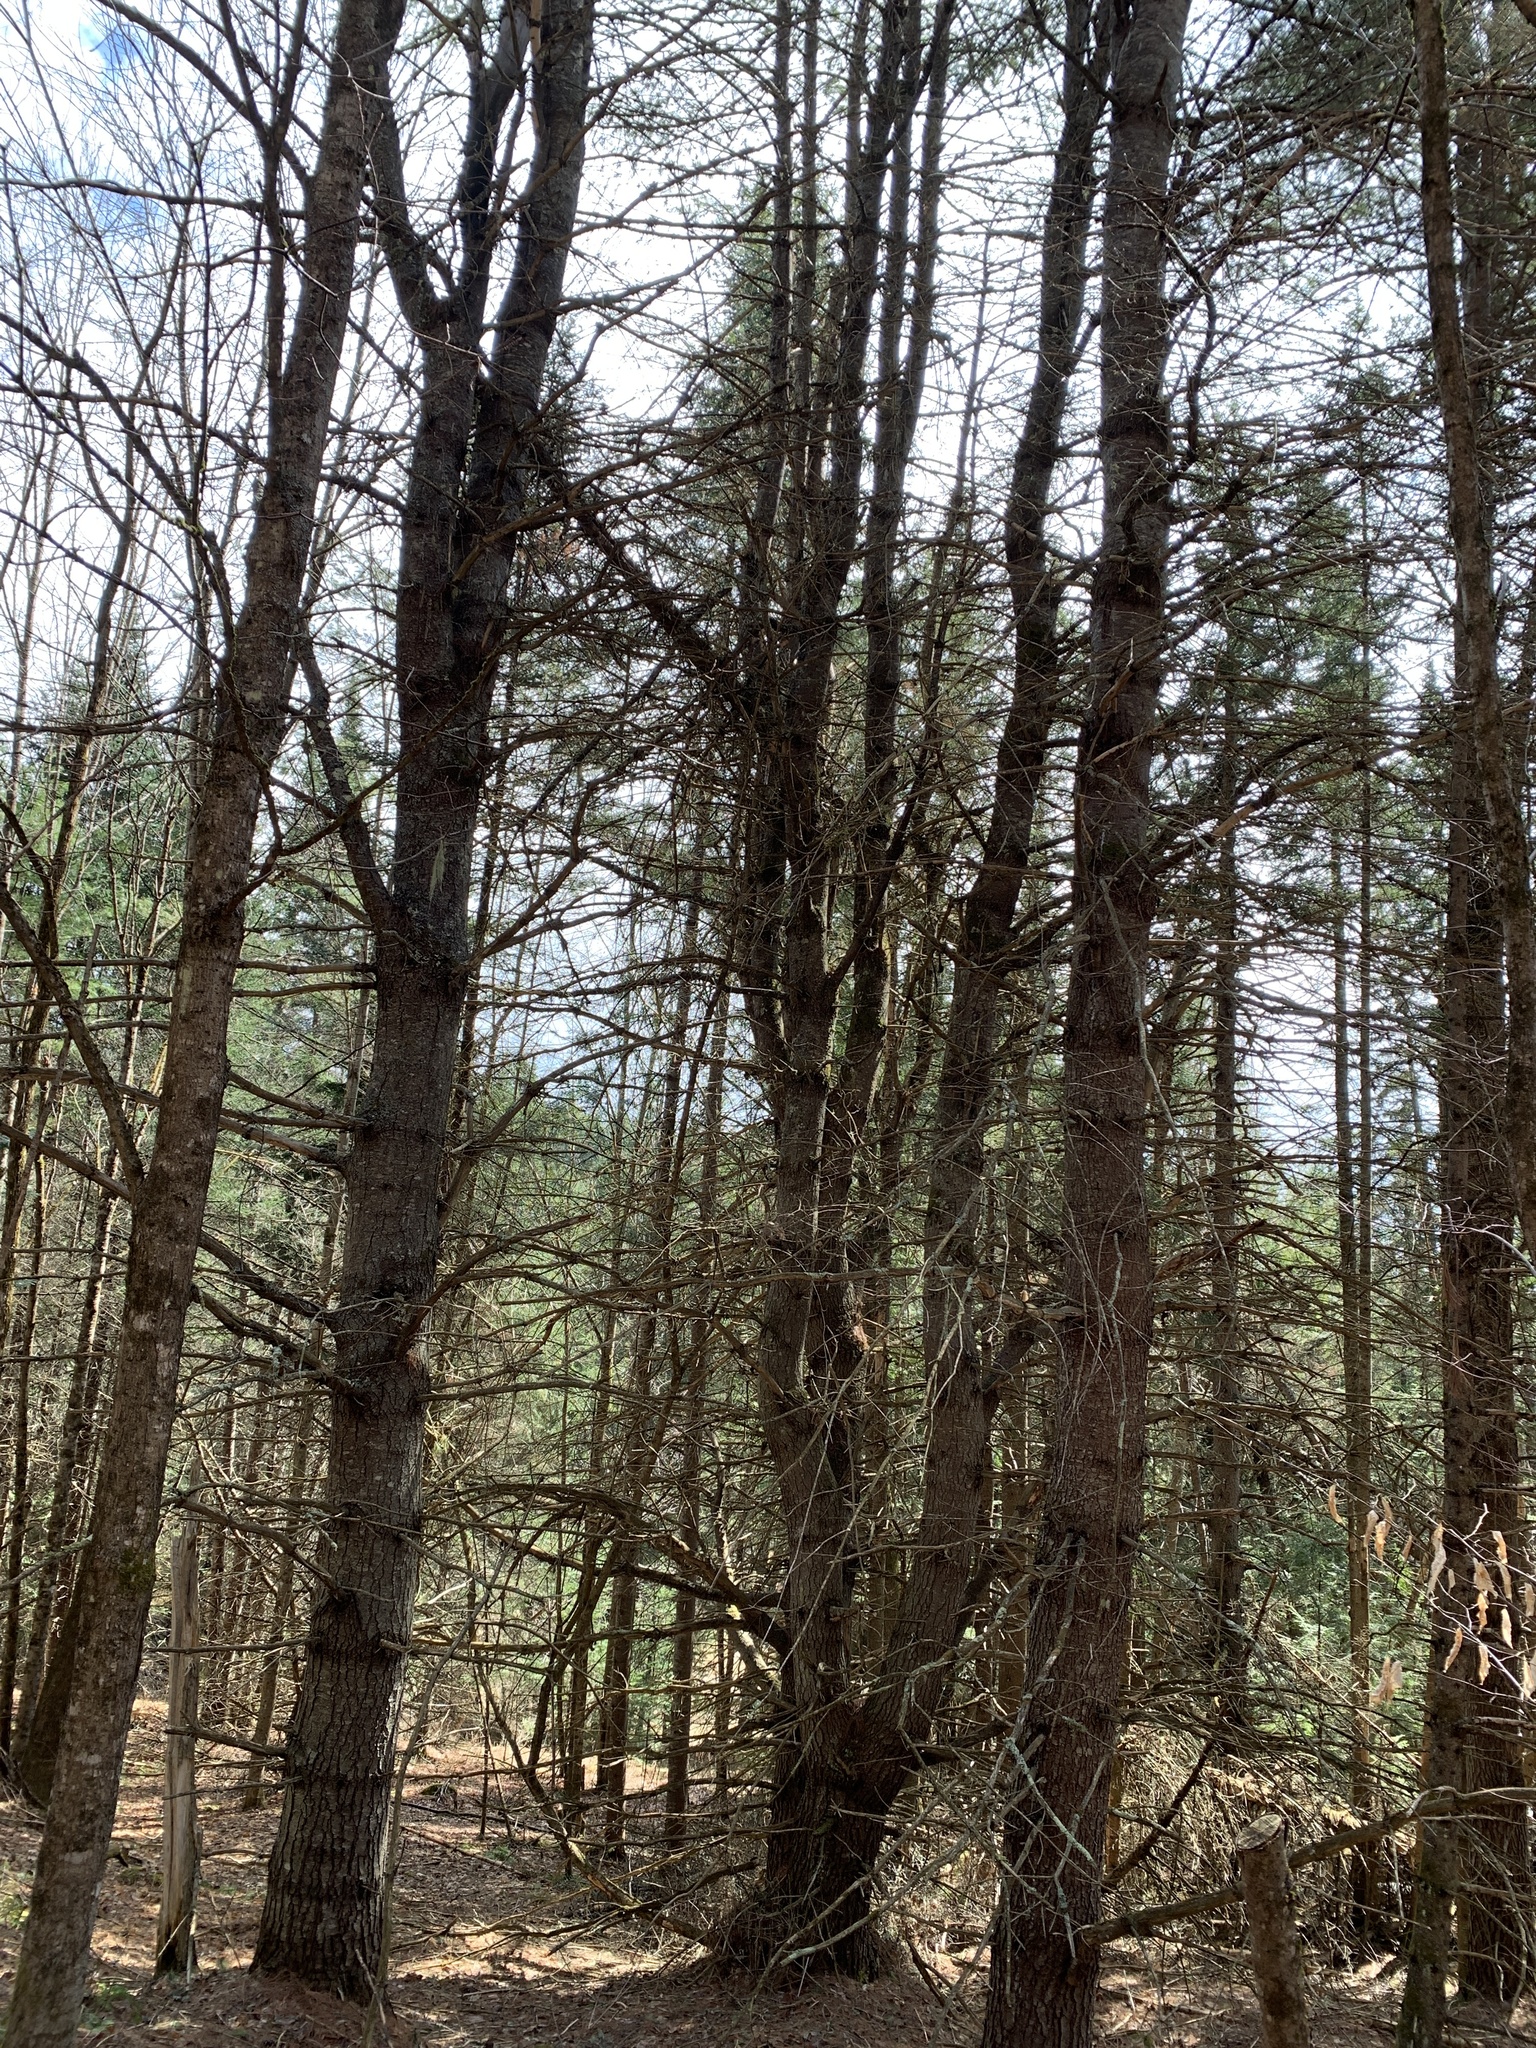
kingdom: Plantae
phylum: Tracheophyta
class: Pinopsida
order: Pinales
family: Pinaceae
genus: Pinus
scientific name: Pinus strobus
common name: Weymouth pine
